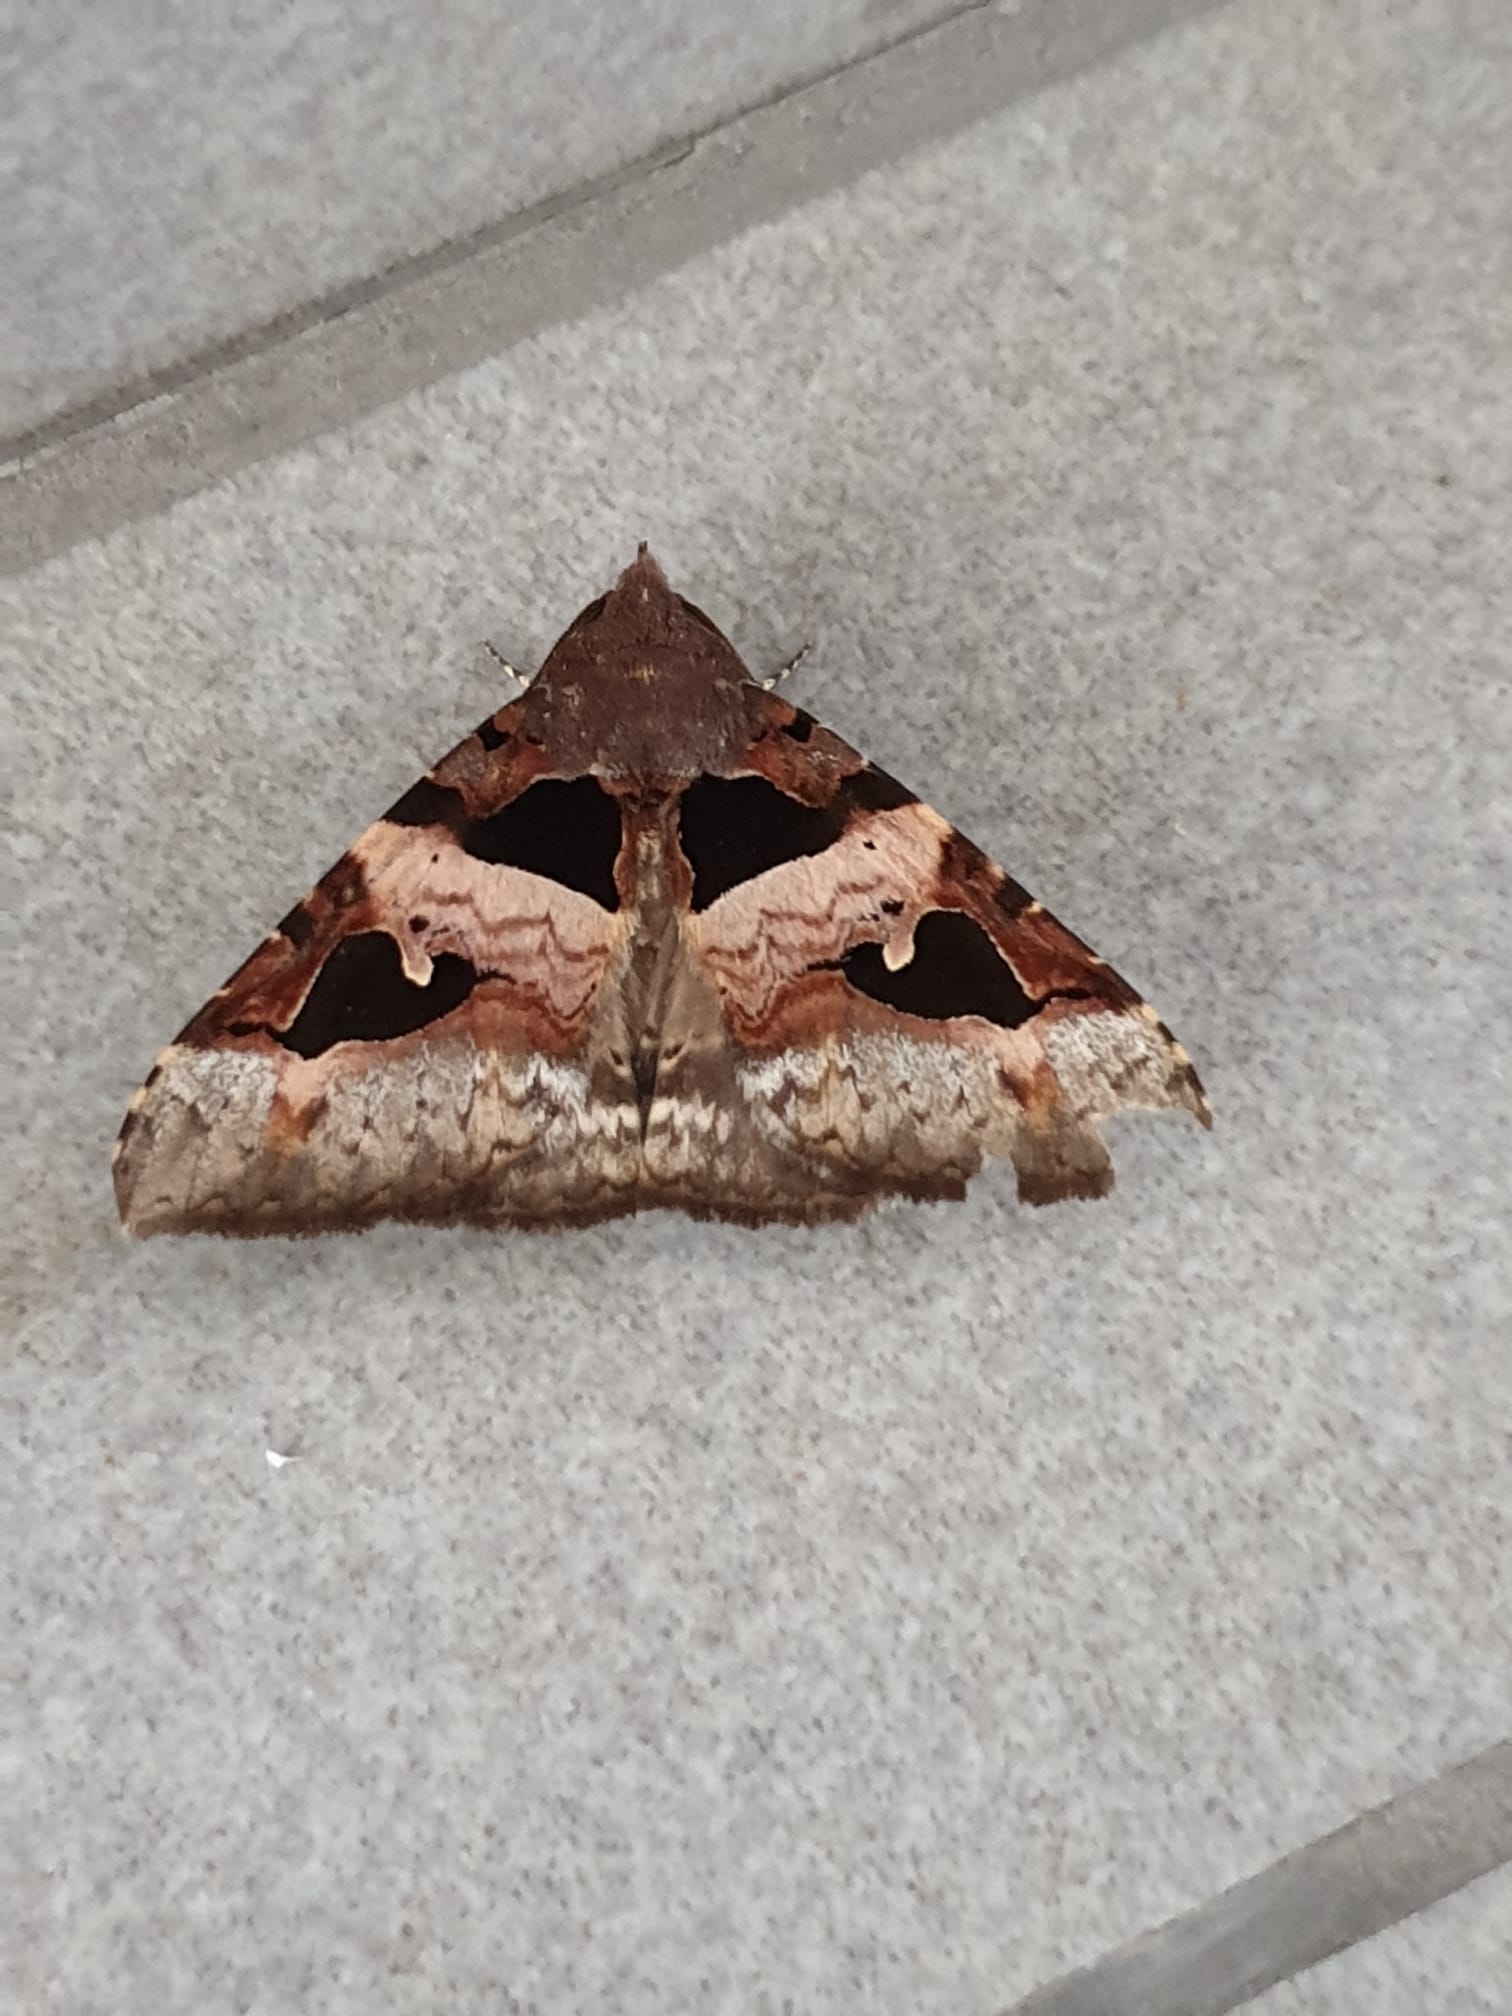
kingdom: Animalia
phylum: Arthropoda
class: Insecta
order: Lepidoptera
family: Erebidae
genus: Avatha
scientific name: Avatha bubo
